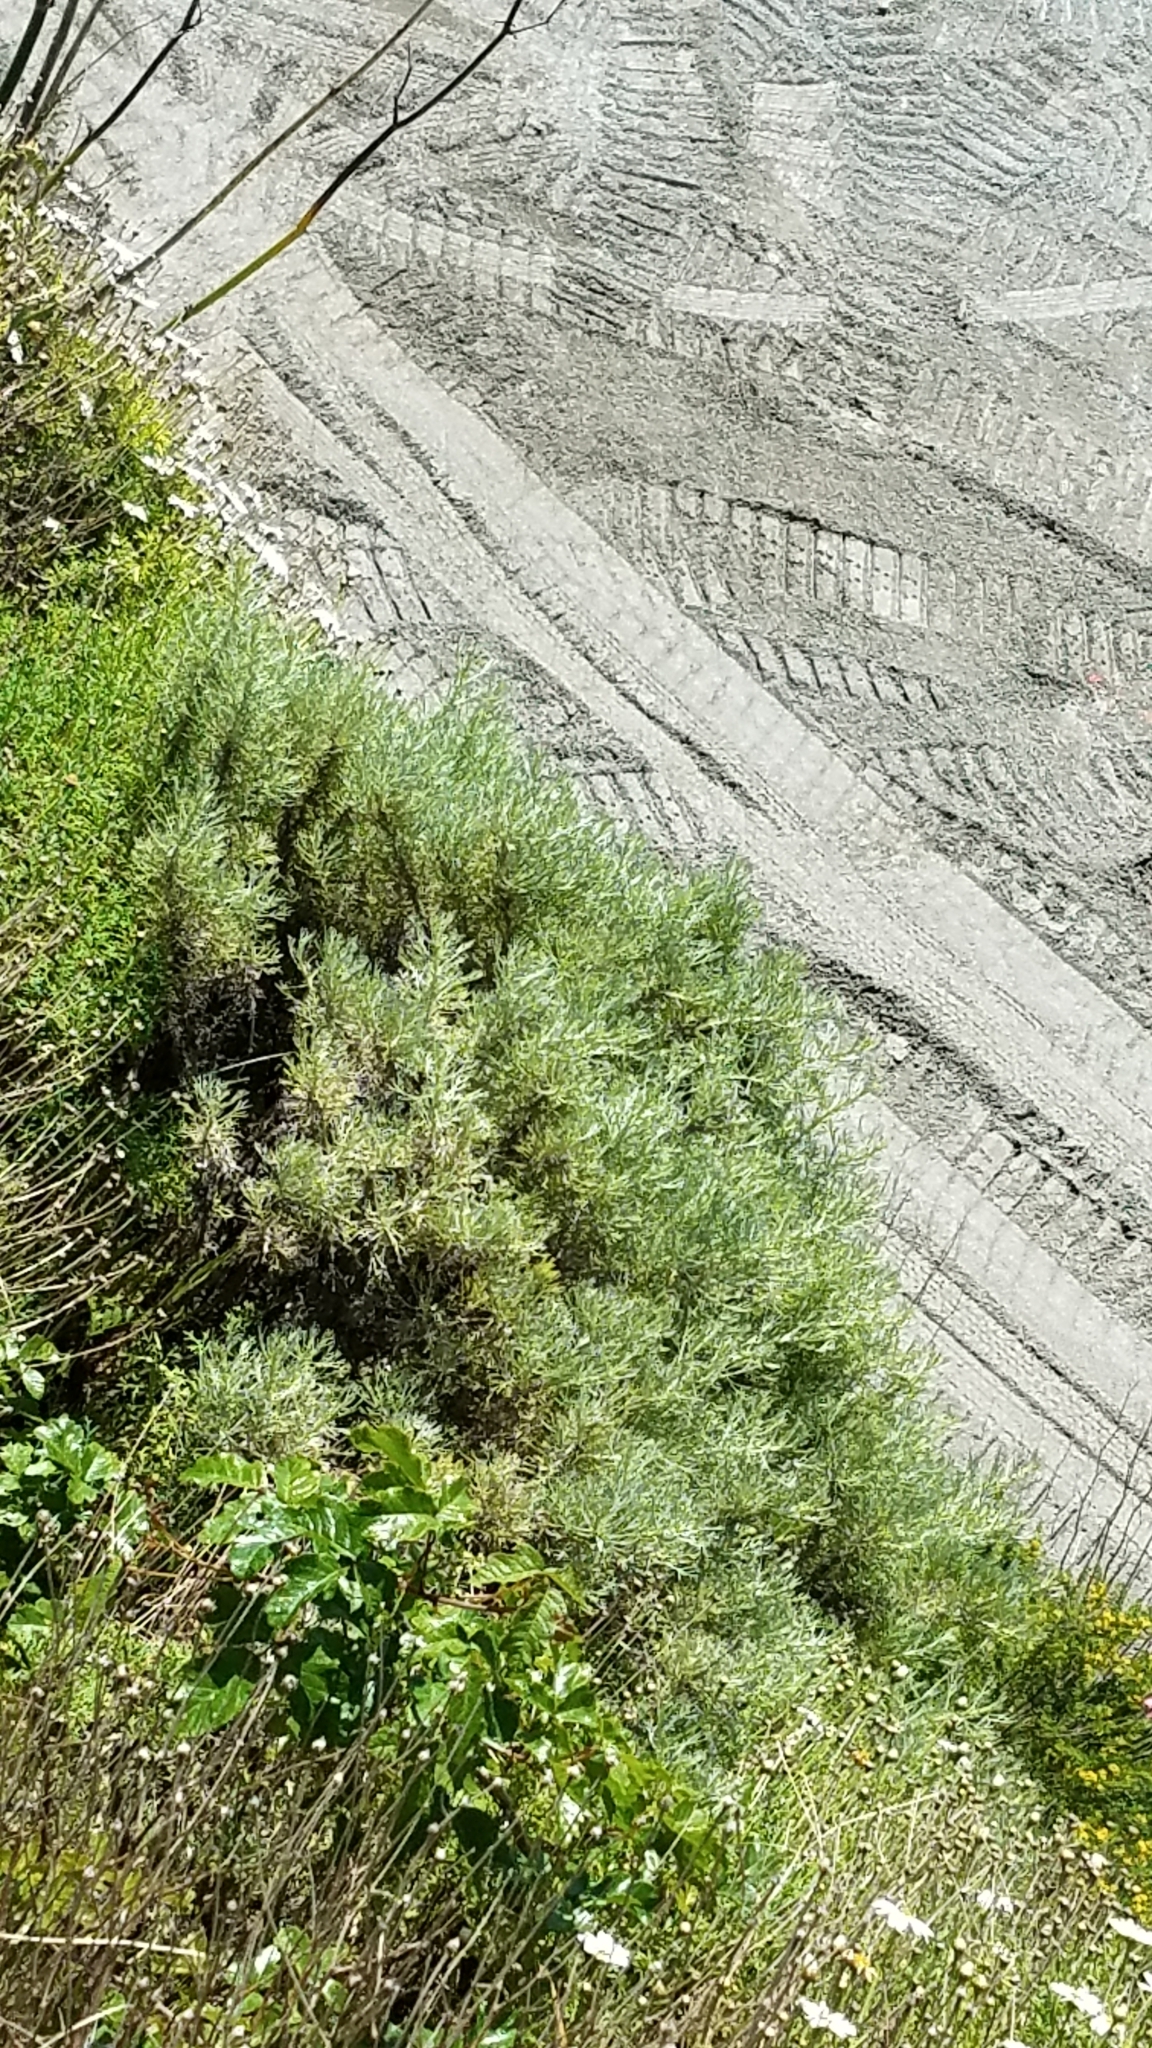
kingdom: Plantae
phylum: Tracheophyta
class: Magnoliopsida
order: Asterales
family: Asteraceae
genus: Artemisia
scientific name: Artemisia californica
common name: California sagebrush
